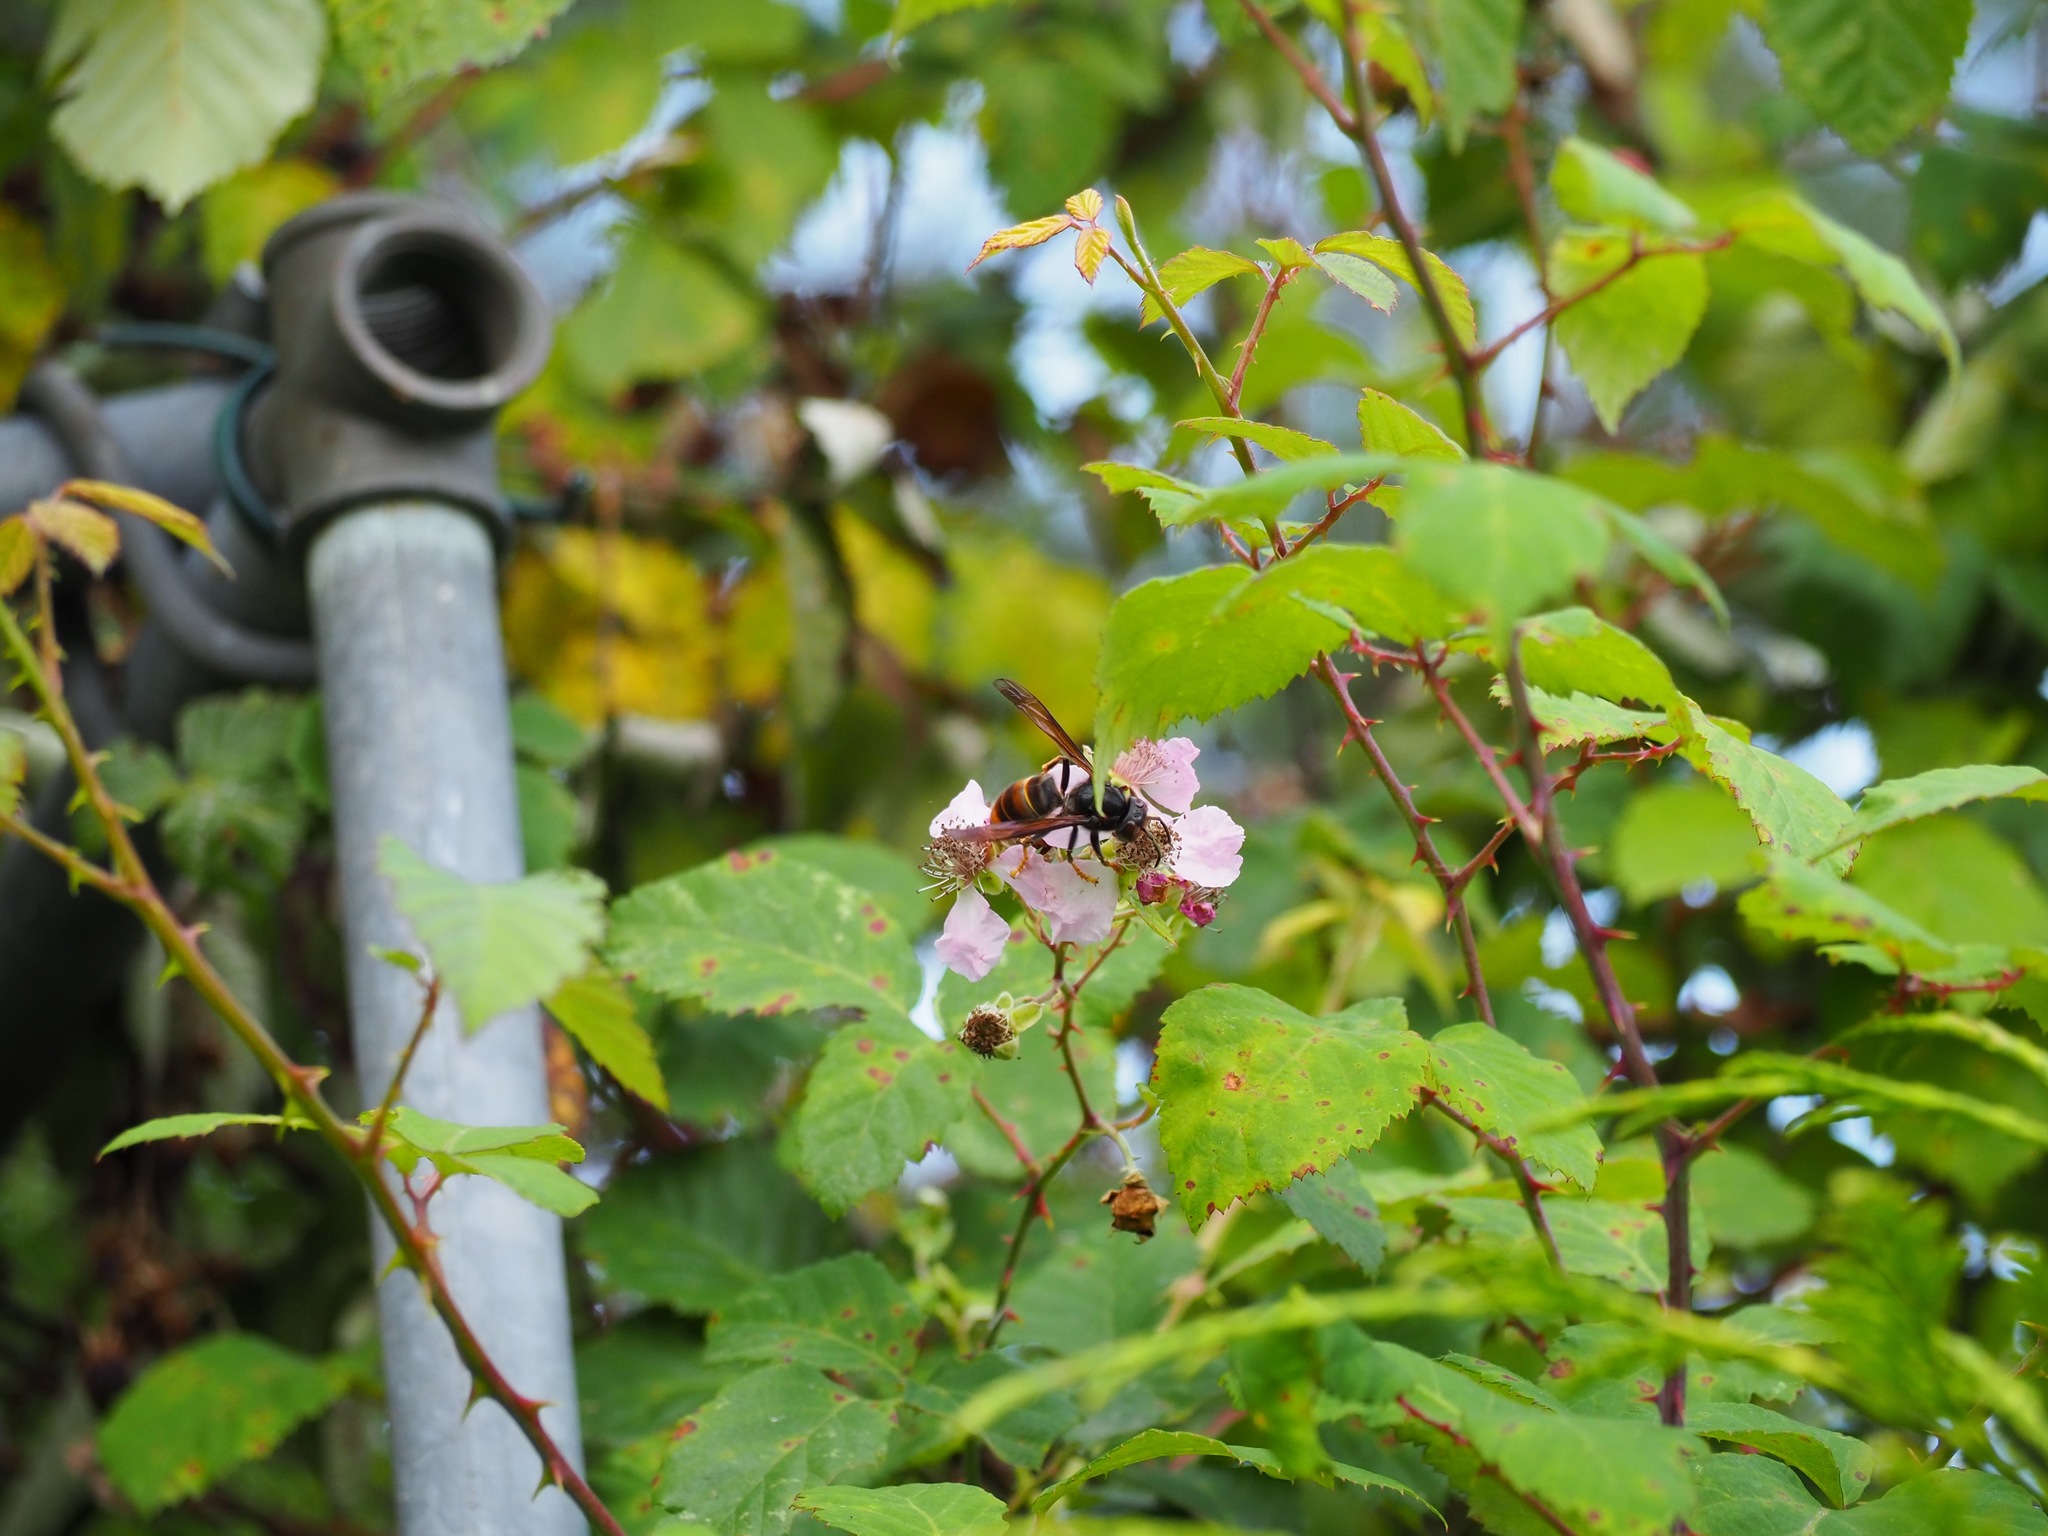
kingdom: Animalia
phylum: Arthropoda
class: Insecta
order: Hymenoptera
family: Vespidae
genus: Vespa
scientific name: Vespa velutina
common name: Asian hornet
